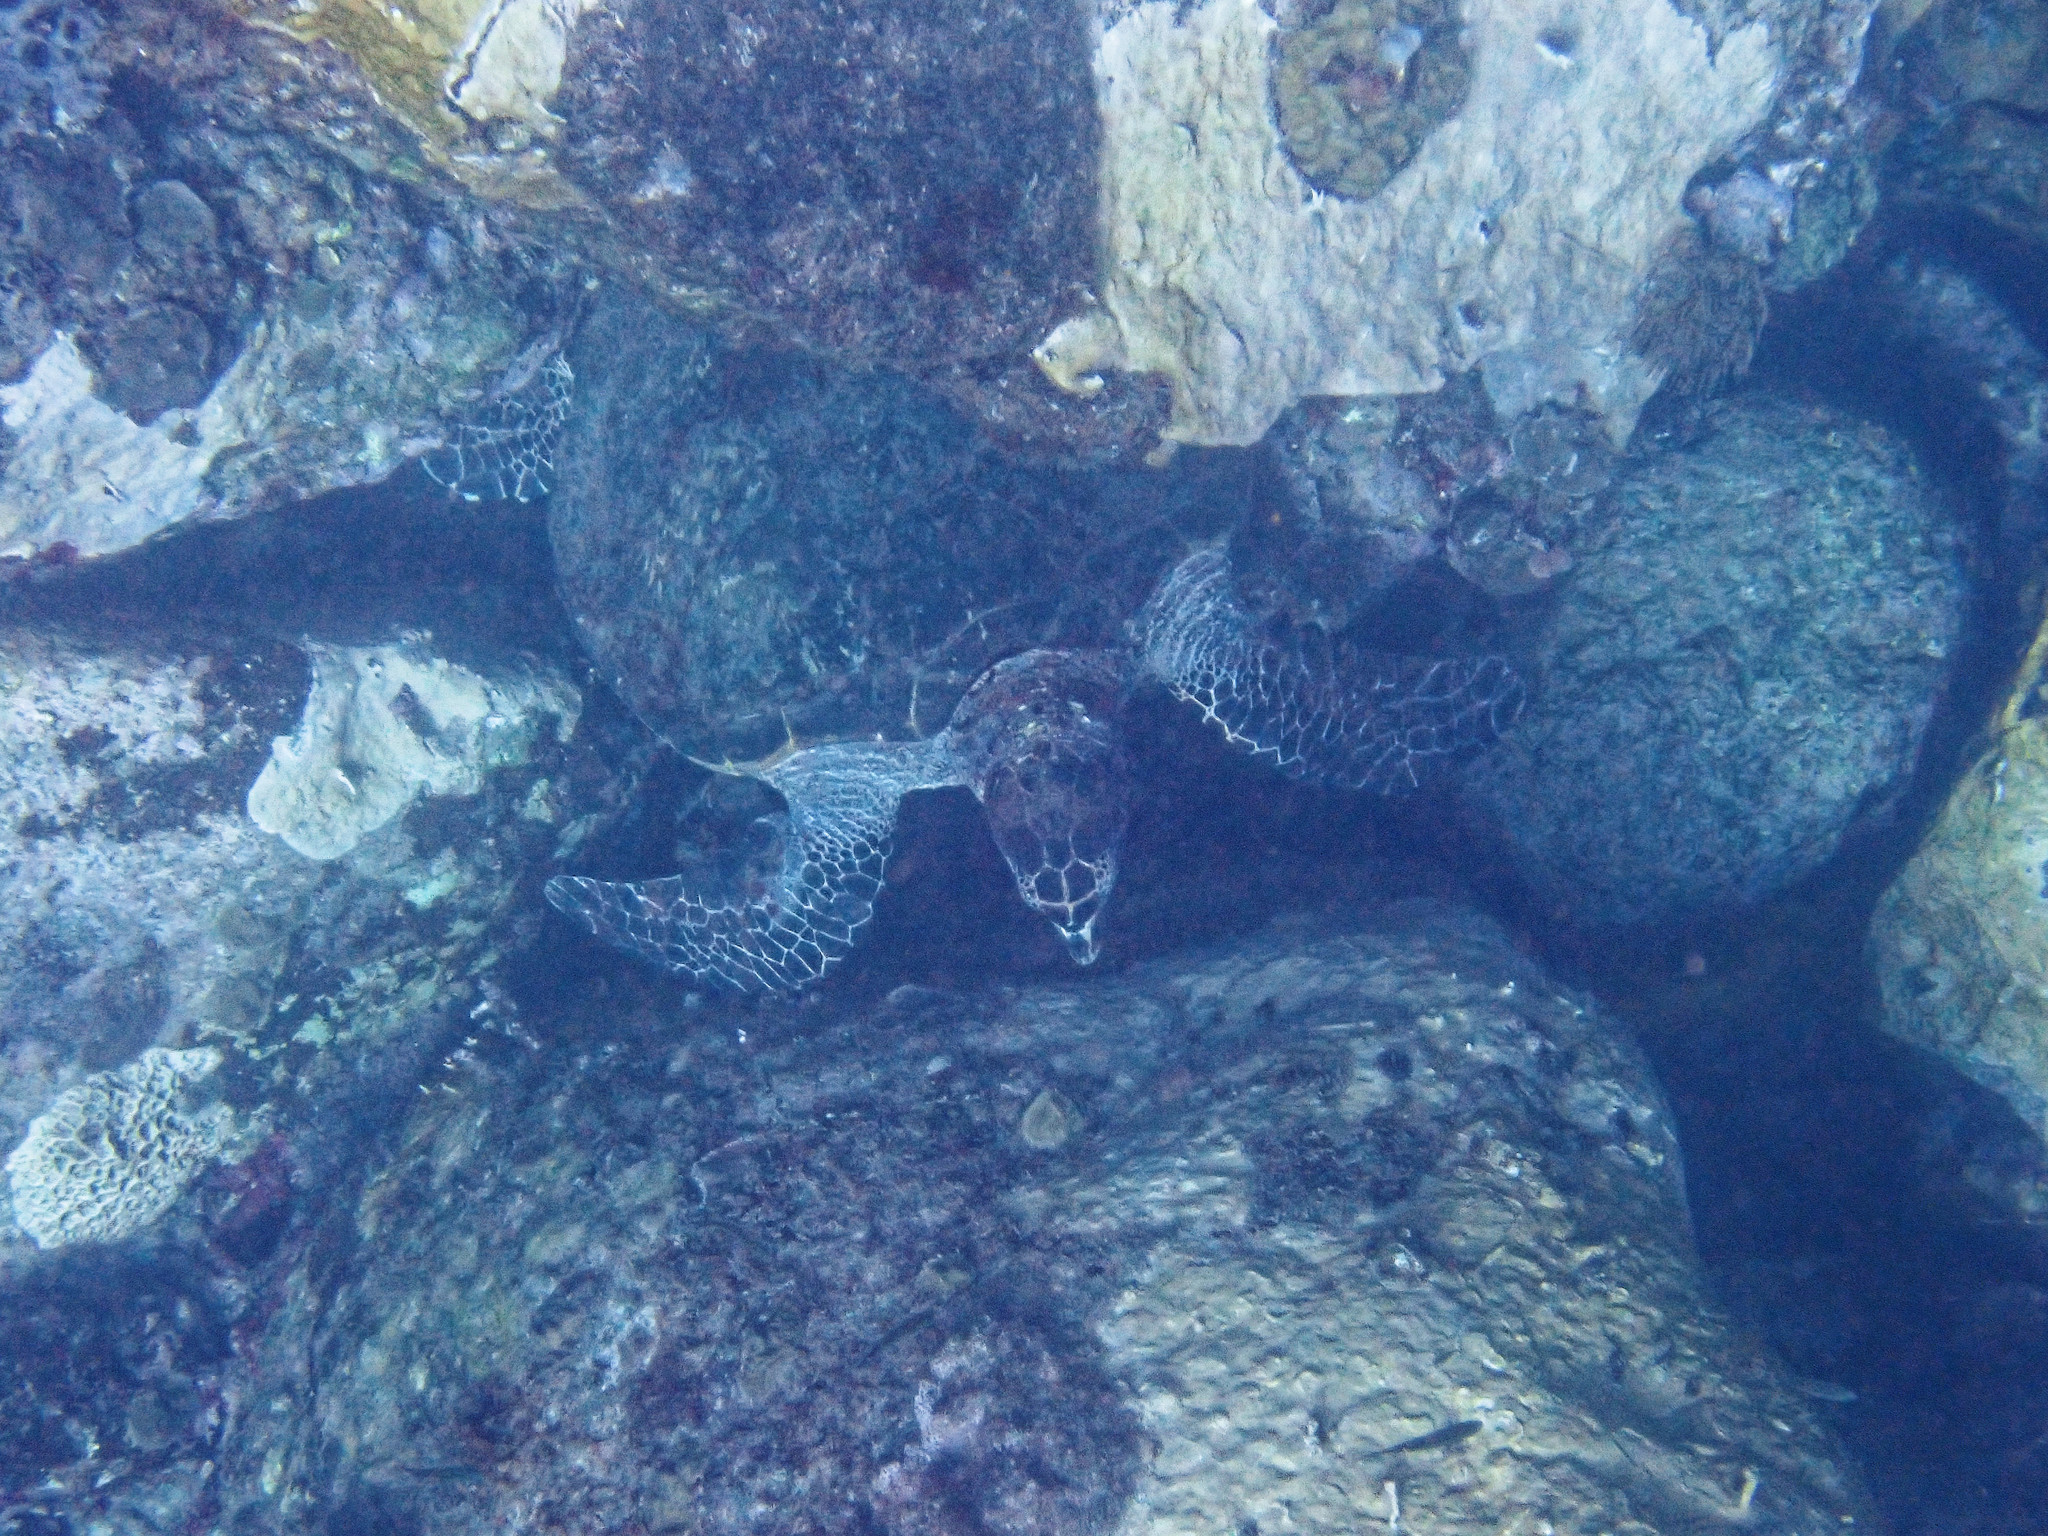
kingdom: Animalia
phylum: Chordata
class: Testudines
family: Cheloniidae
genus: Eretmochelys
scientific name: Eretmochelys imbricata
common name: Hawksbill turtle
